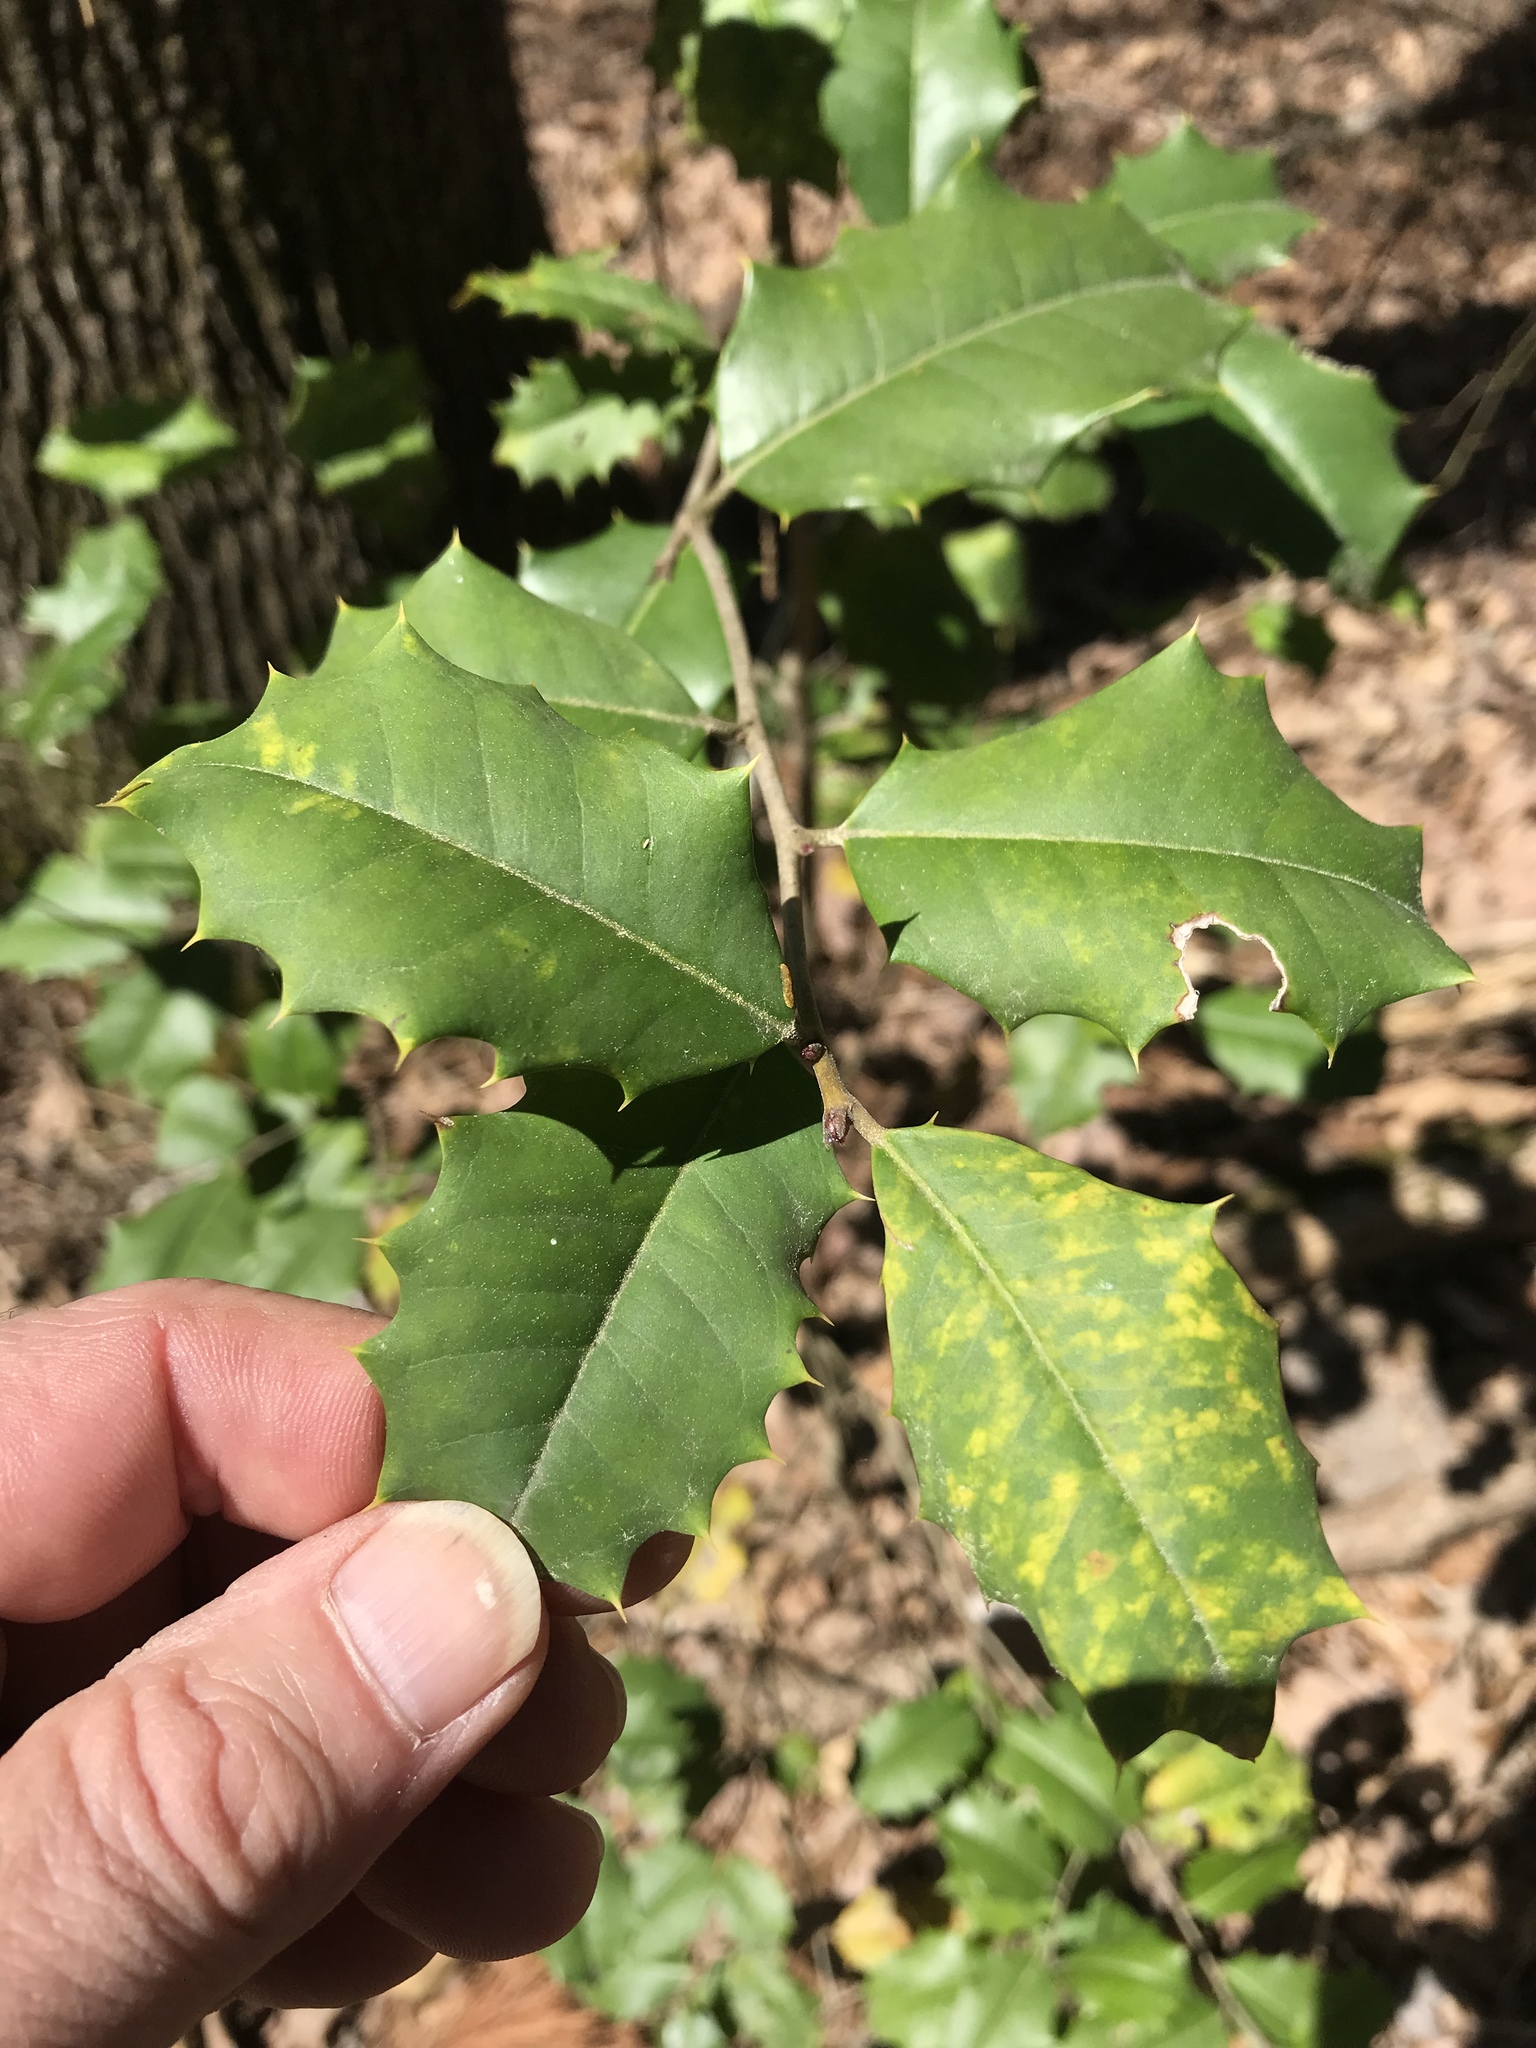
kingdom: Plantae
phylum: Tracheophyta
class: Magnoliopsida
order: Aquifoliales
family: Aquifoliaceae
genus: Ilex
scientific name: Ilex opaca
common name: American holly
